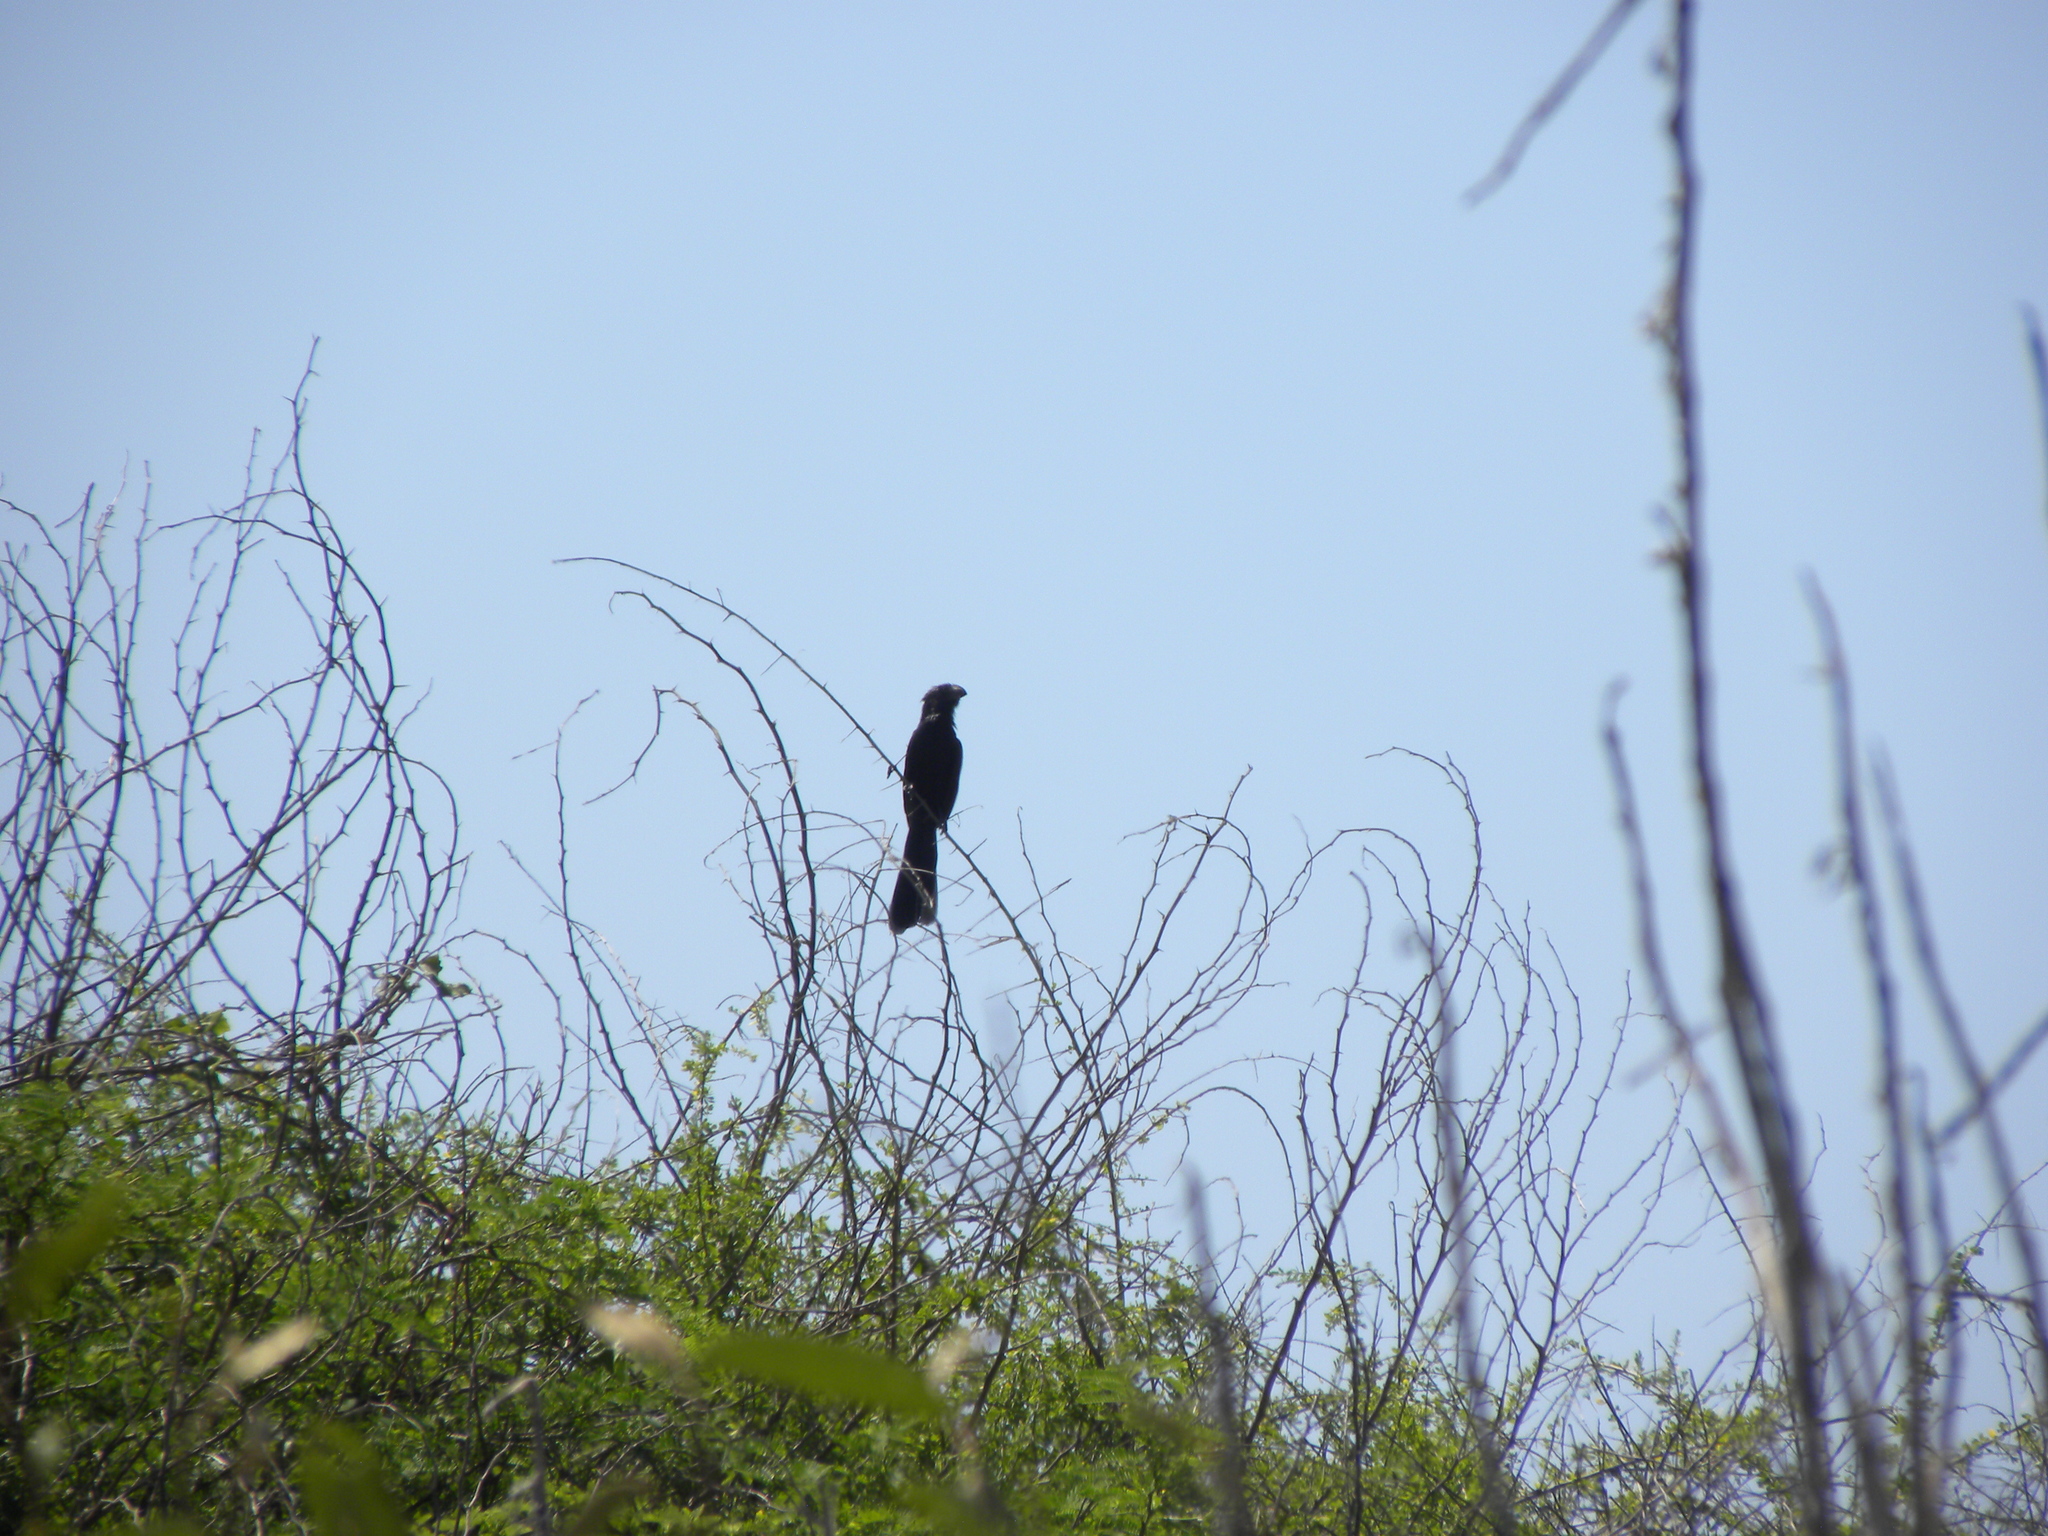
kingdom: Animalia
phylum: Chordata
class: Aves
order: Cuculiformes
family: Cuculidae
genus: Crotophaga
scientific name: Crotophaga ani
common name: Smooth-billed ani
